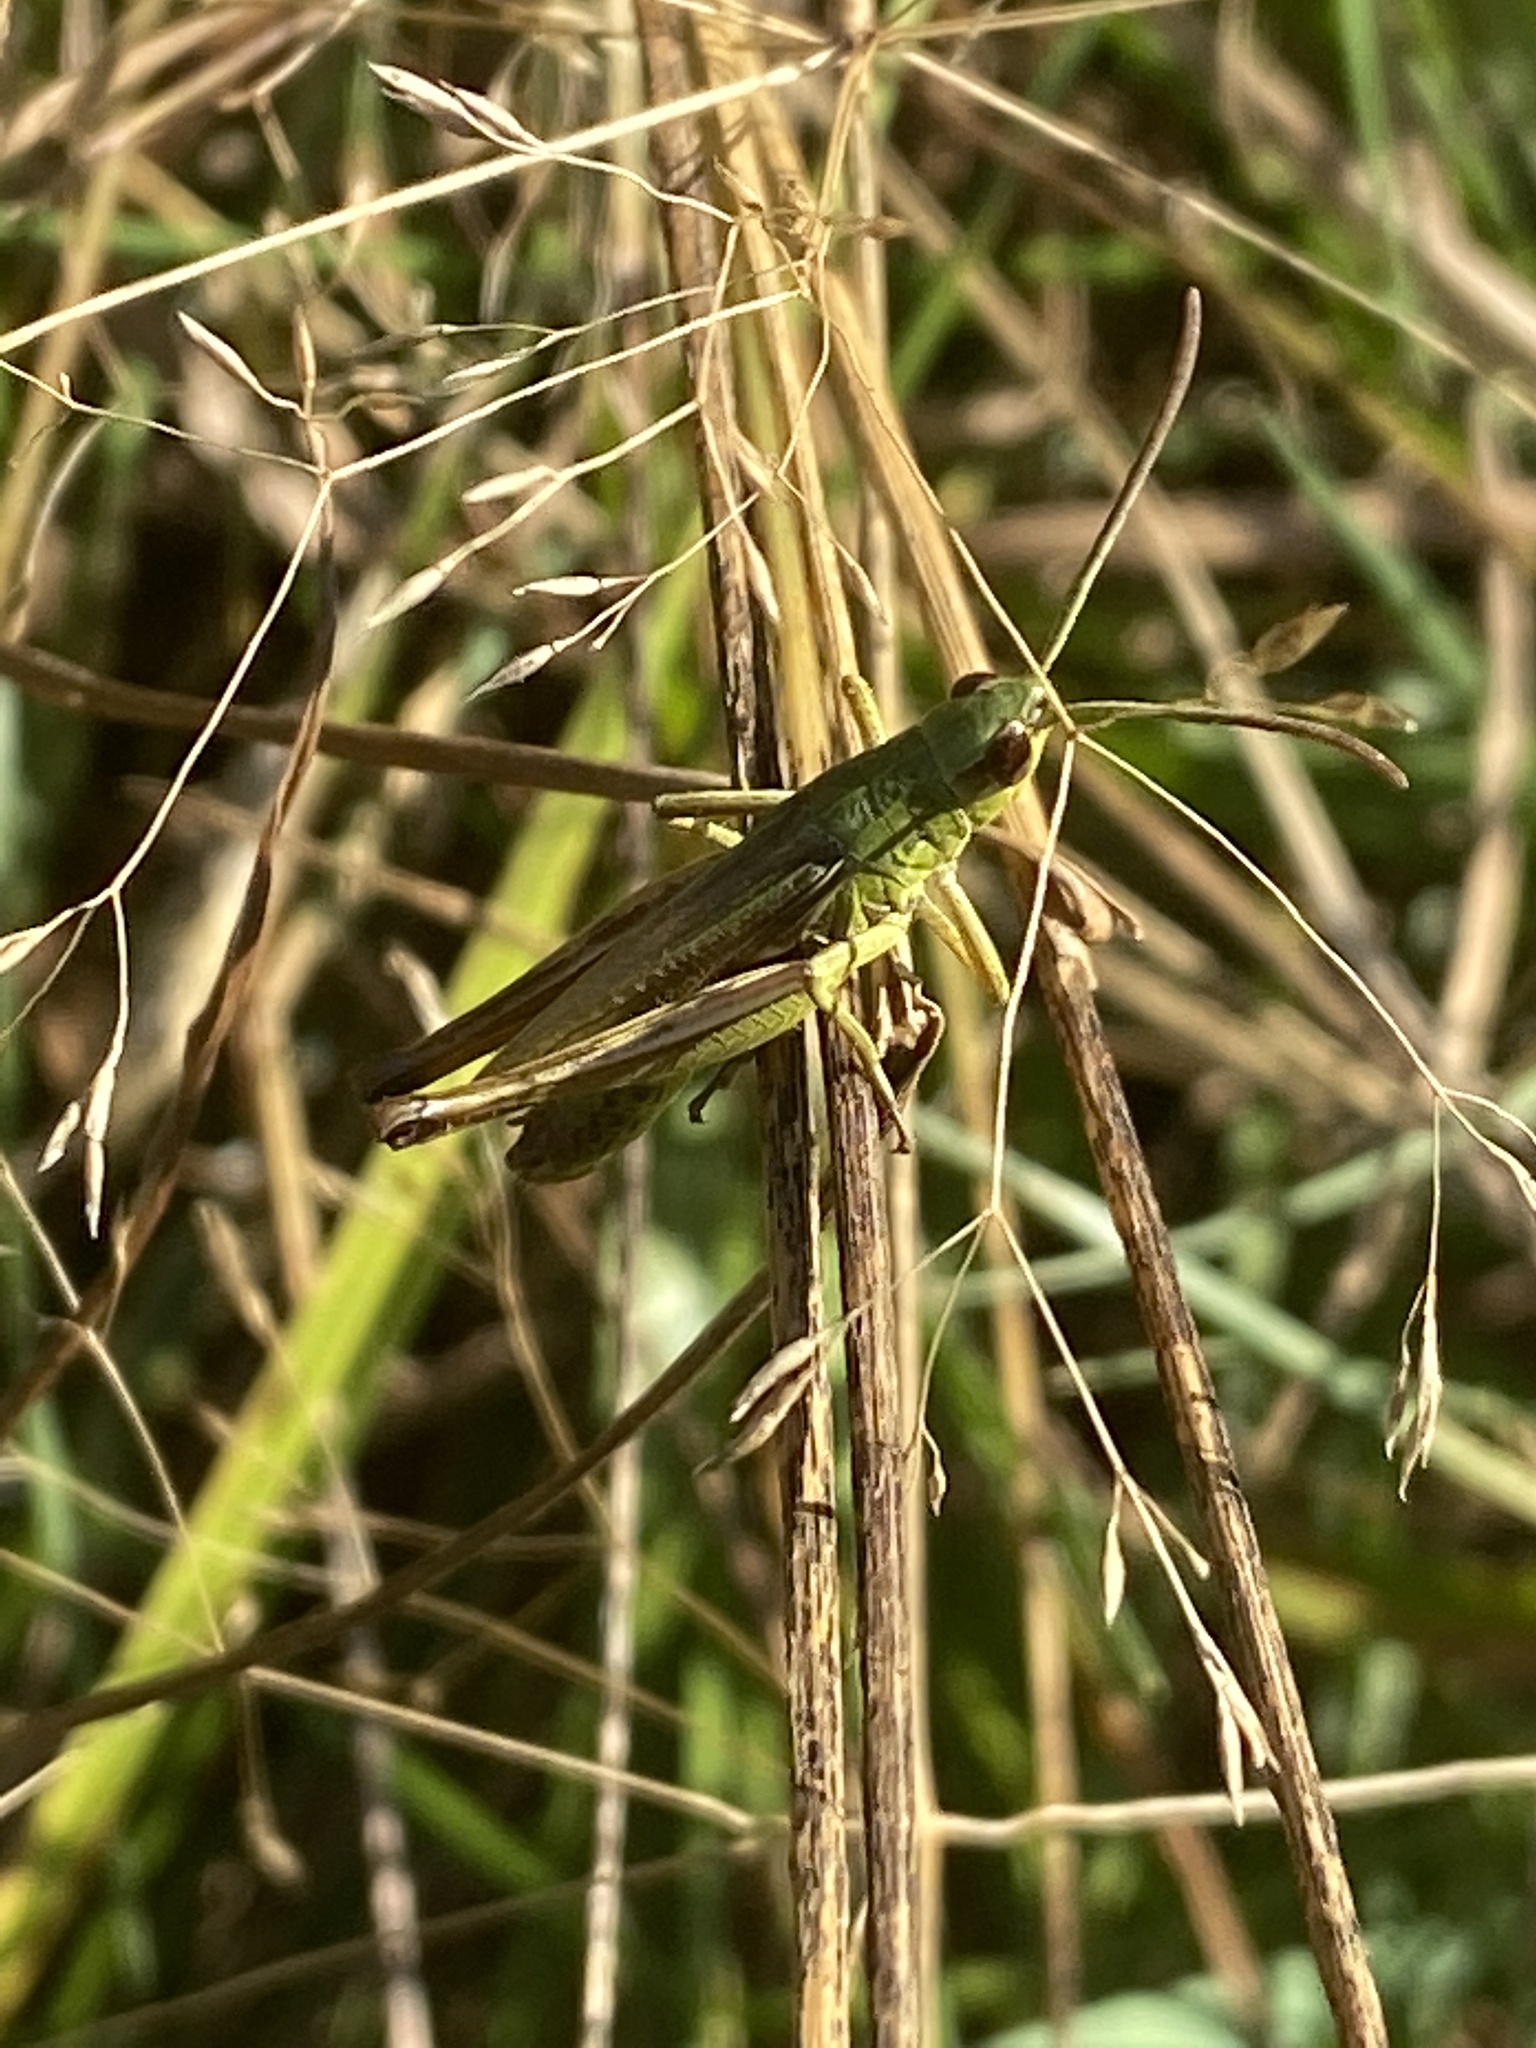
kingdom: Animalia
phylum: Arthropoda
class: Insecta
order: Orthoptera
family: Acrididae
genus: Pseudochorthippus
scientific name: Pseudochorthippus parallelus
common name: Meadow grasshopper
